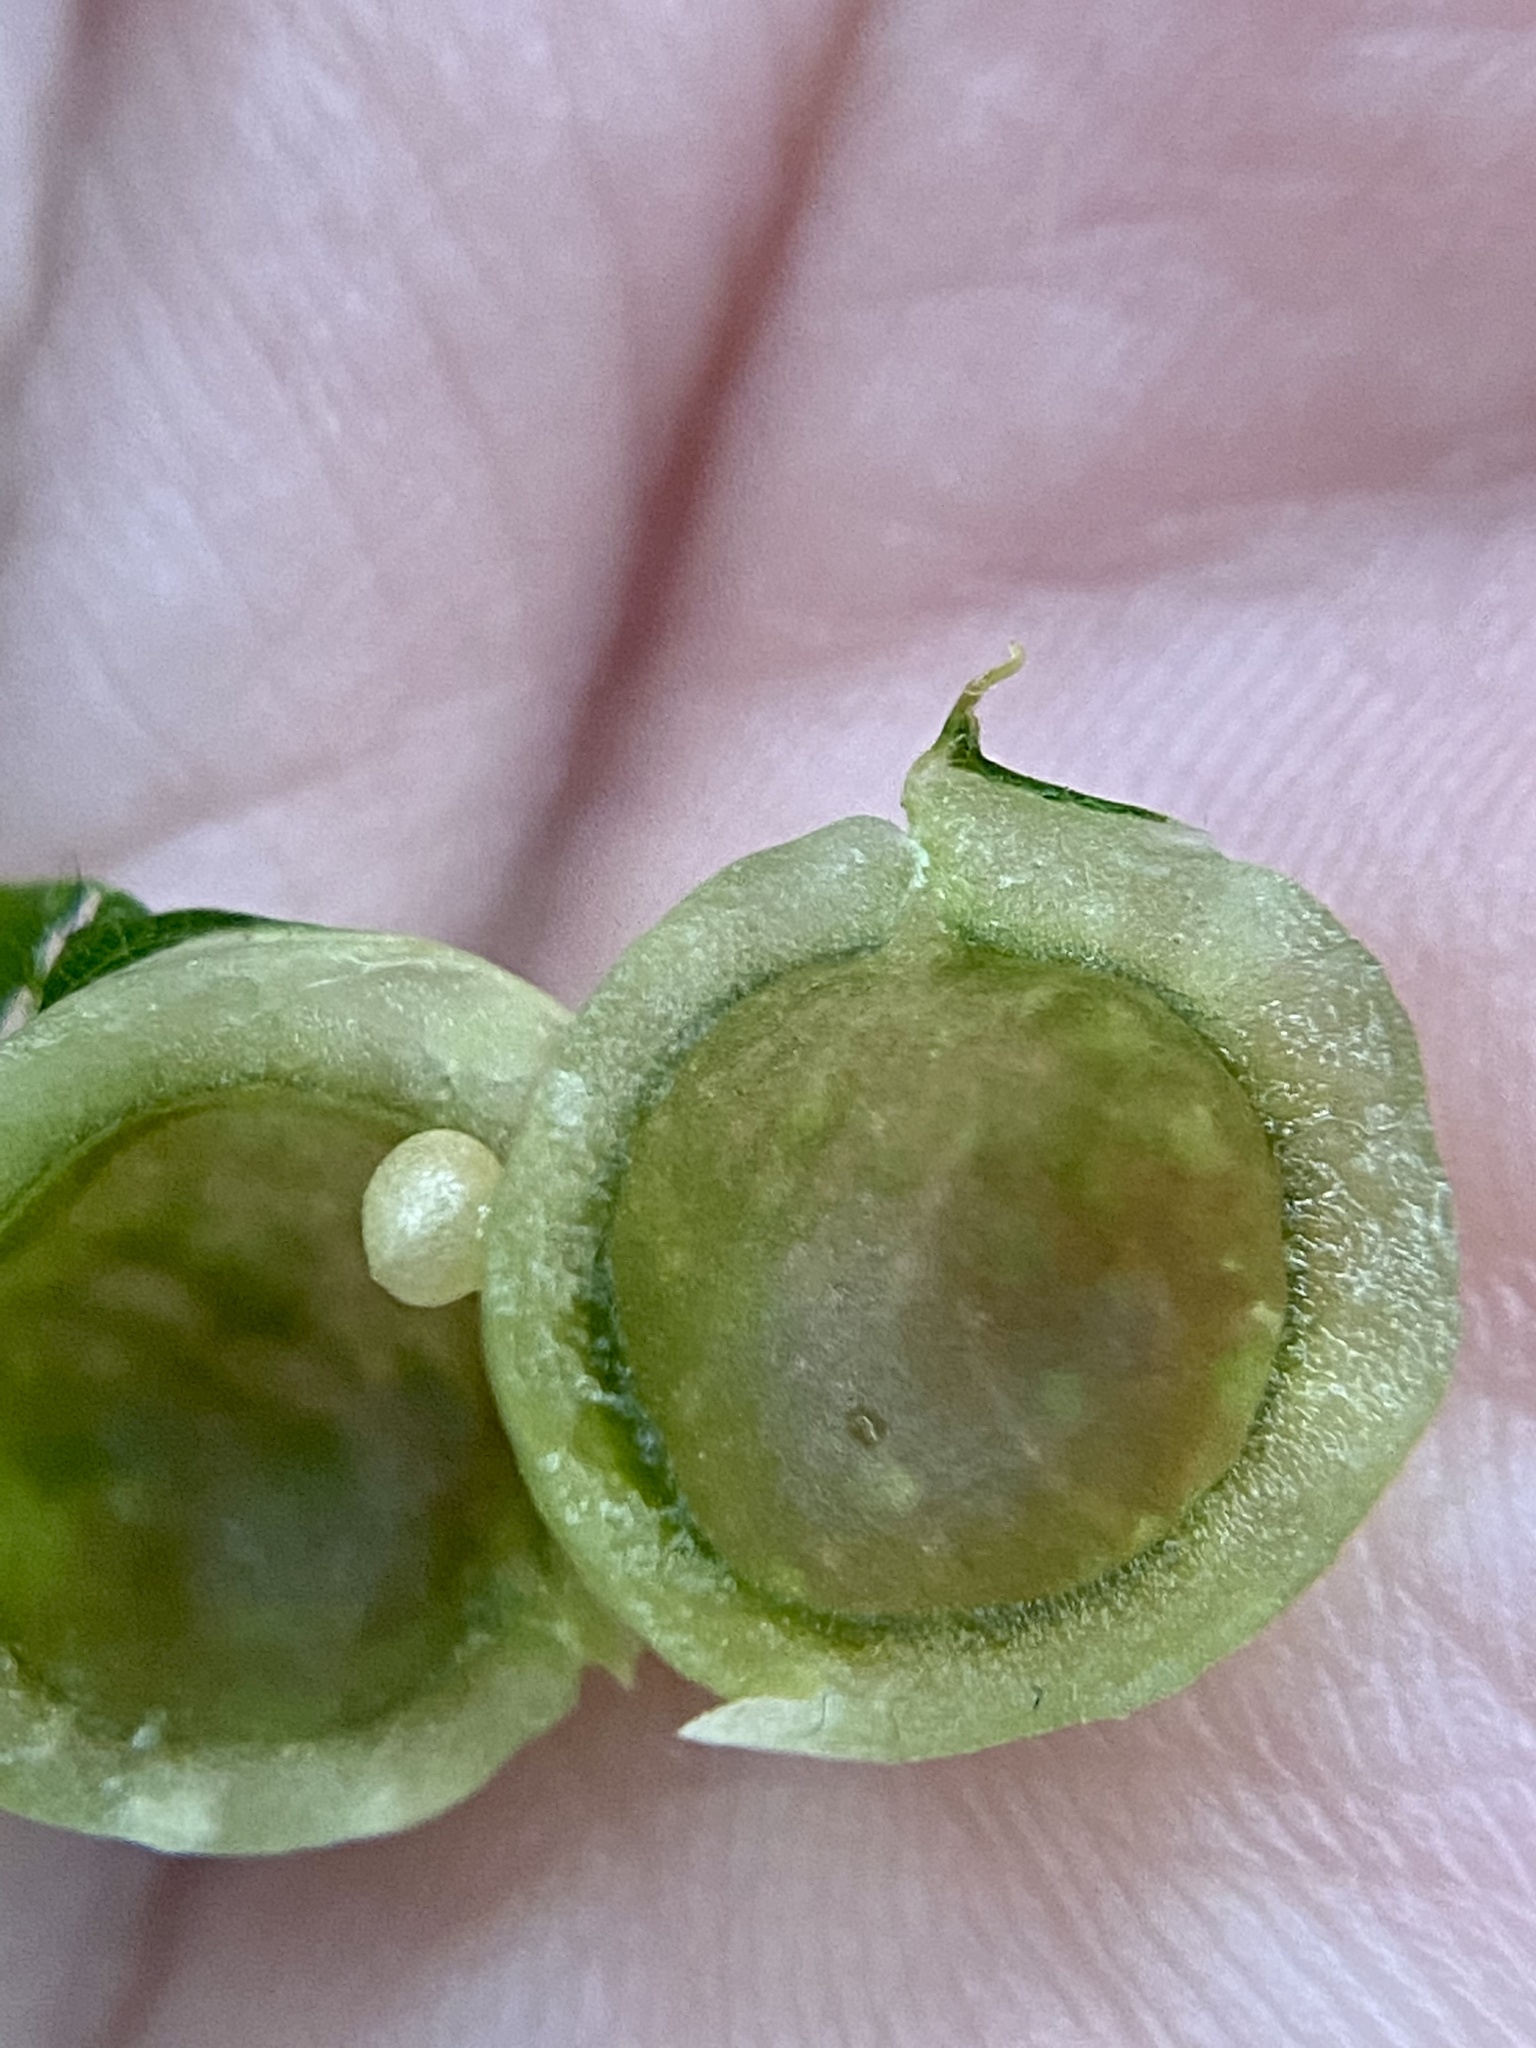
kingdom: Animalia
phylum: Arthropoda
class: Insecta
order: Hymenoptera
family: Cynipidae
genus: Dryocosmus
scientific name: Dryocosmus
